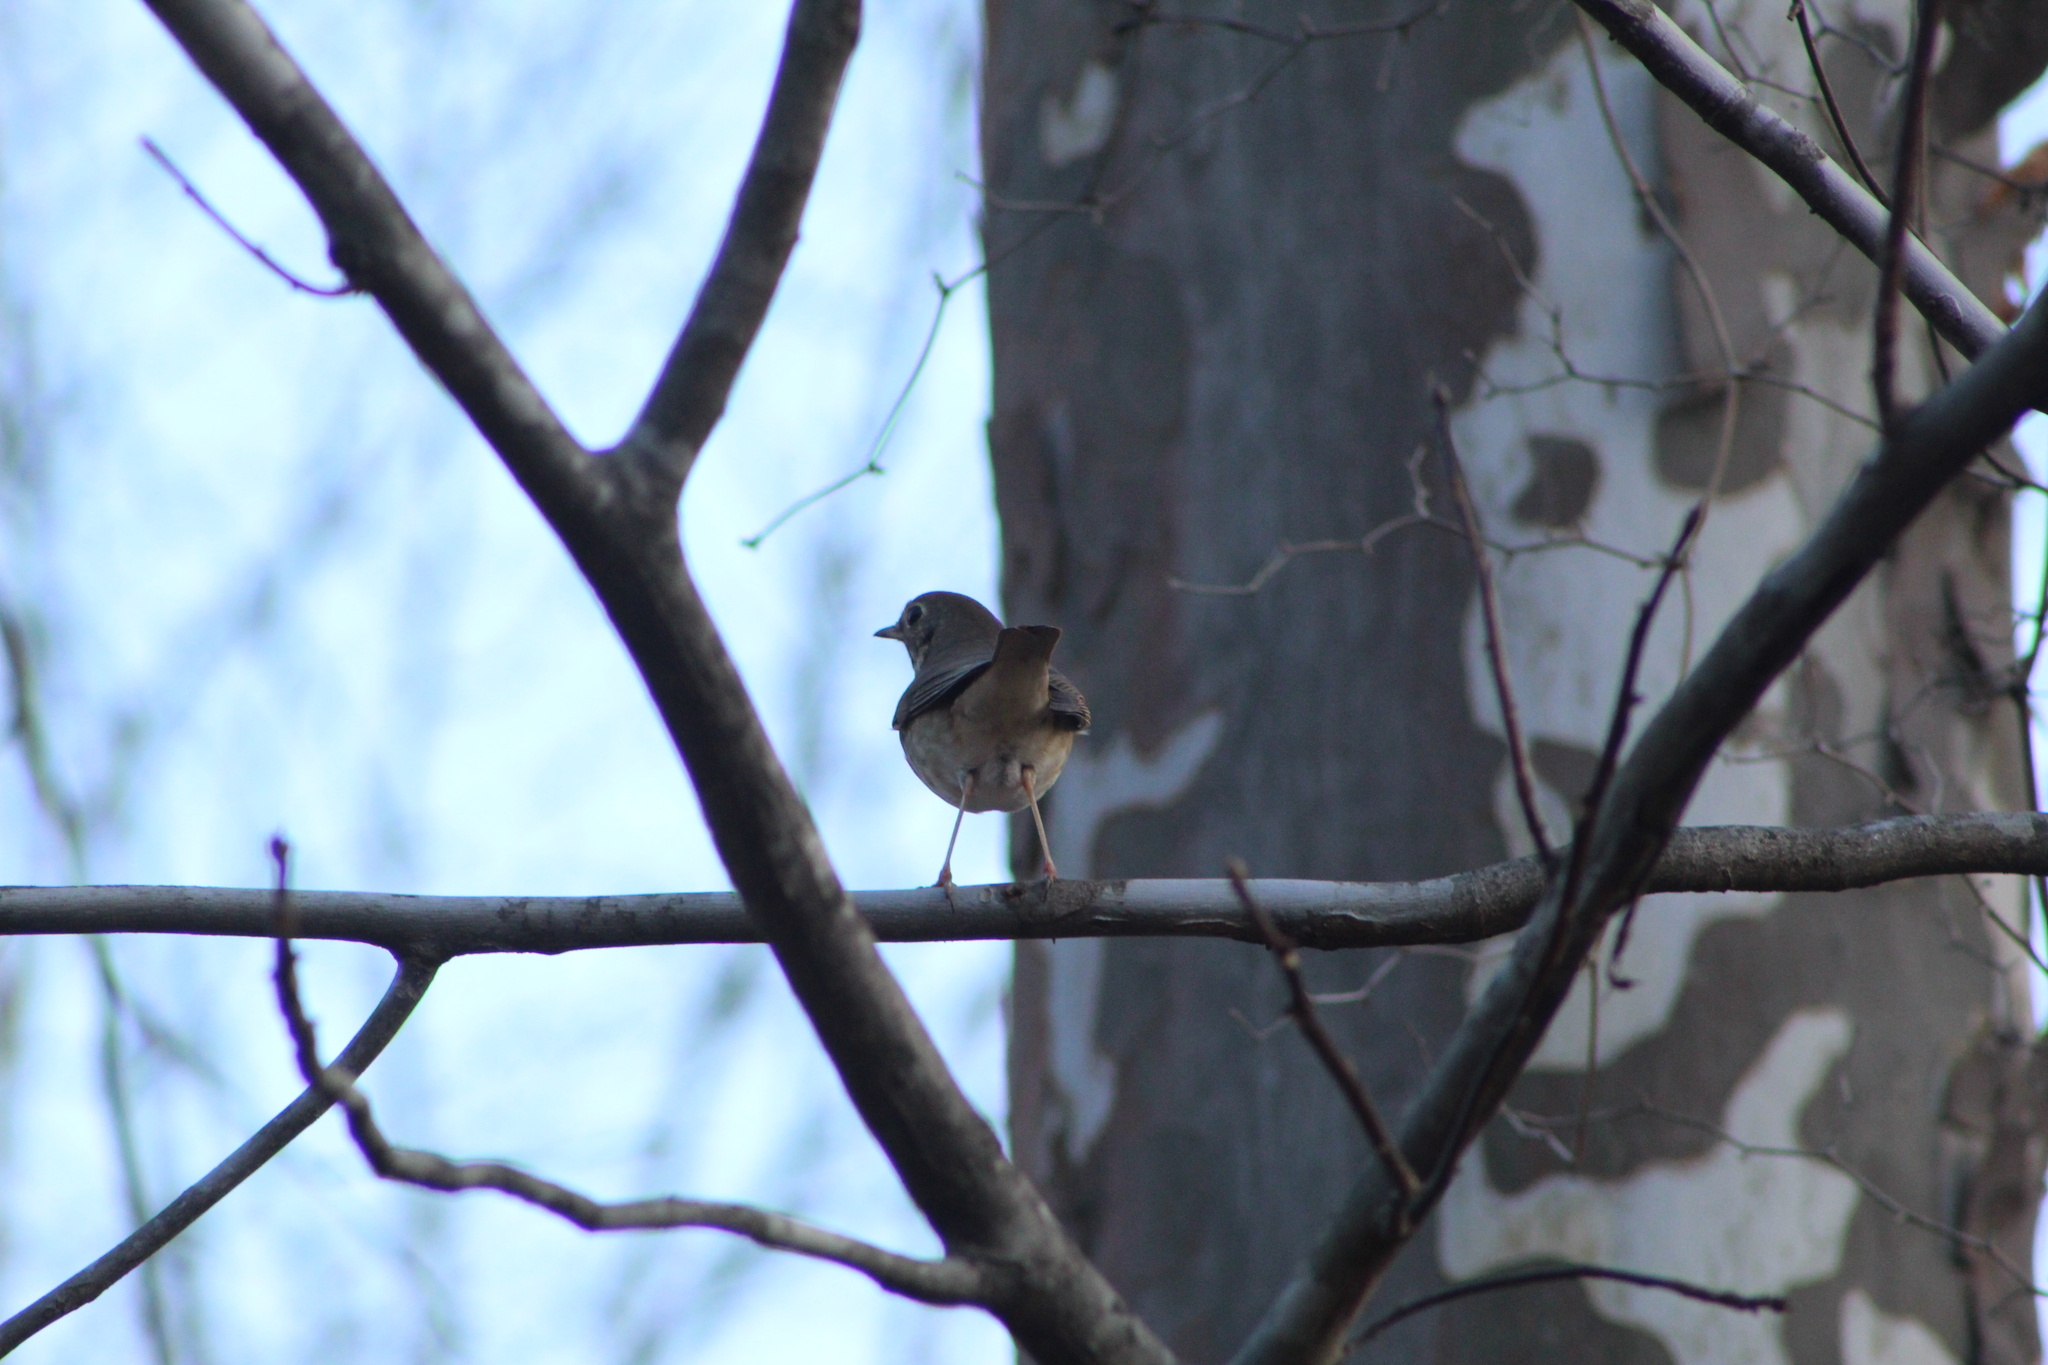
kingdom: Animalia
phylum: Chordata
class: Aves
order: Passeriformes
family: Turdidae
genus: Catharus
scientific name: Catharus guttatus
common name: Hermit thrush
